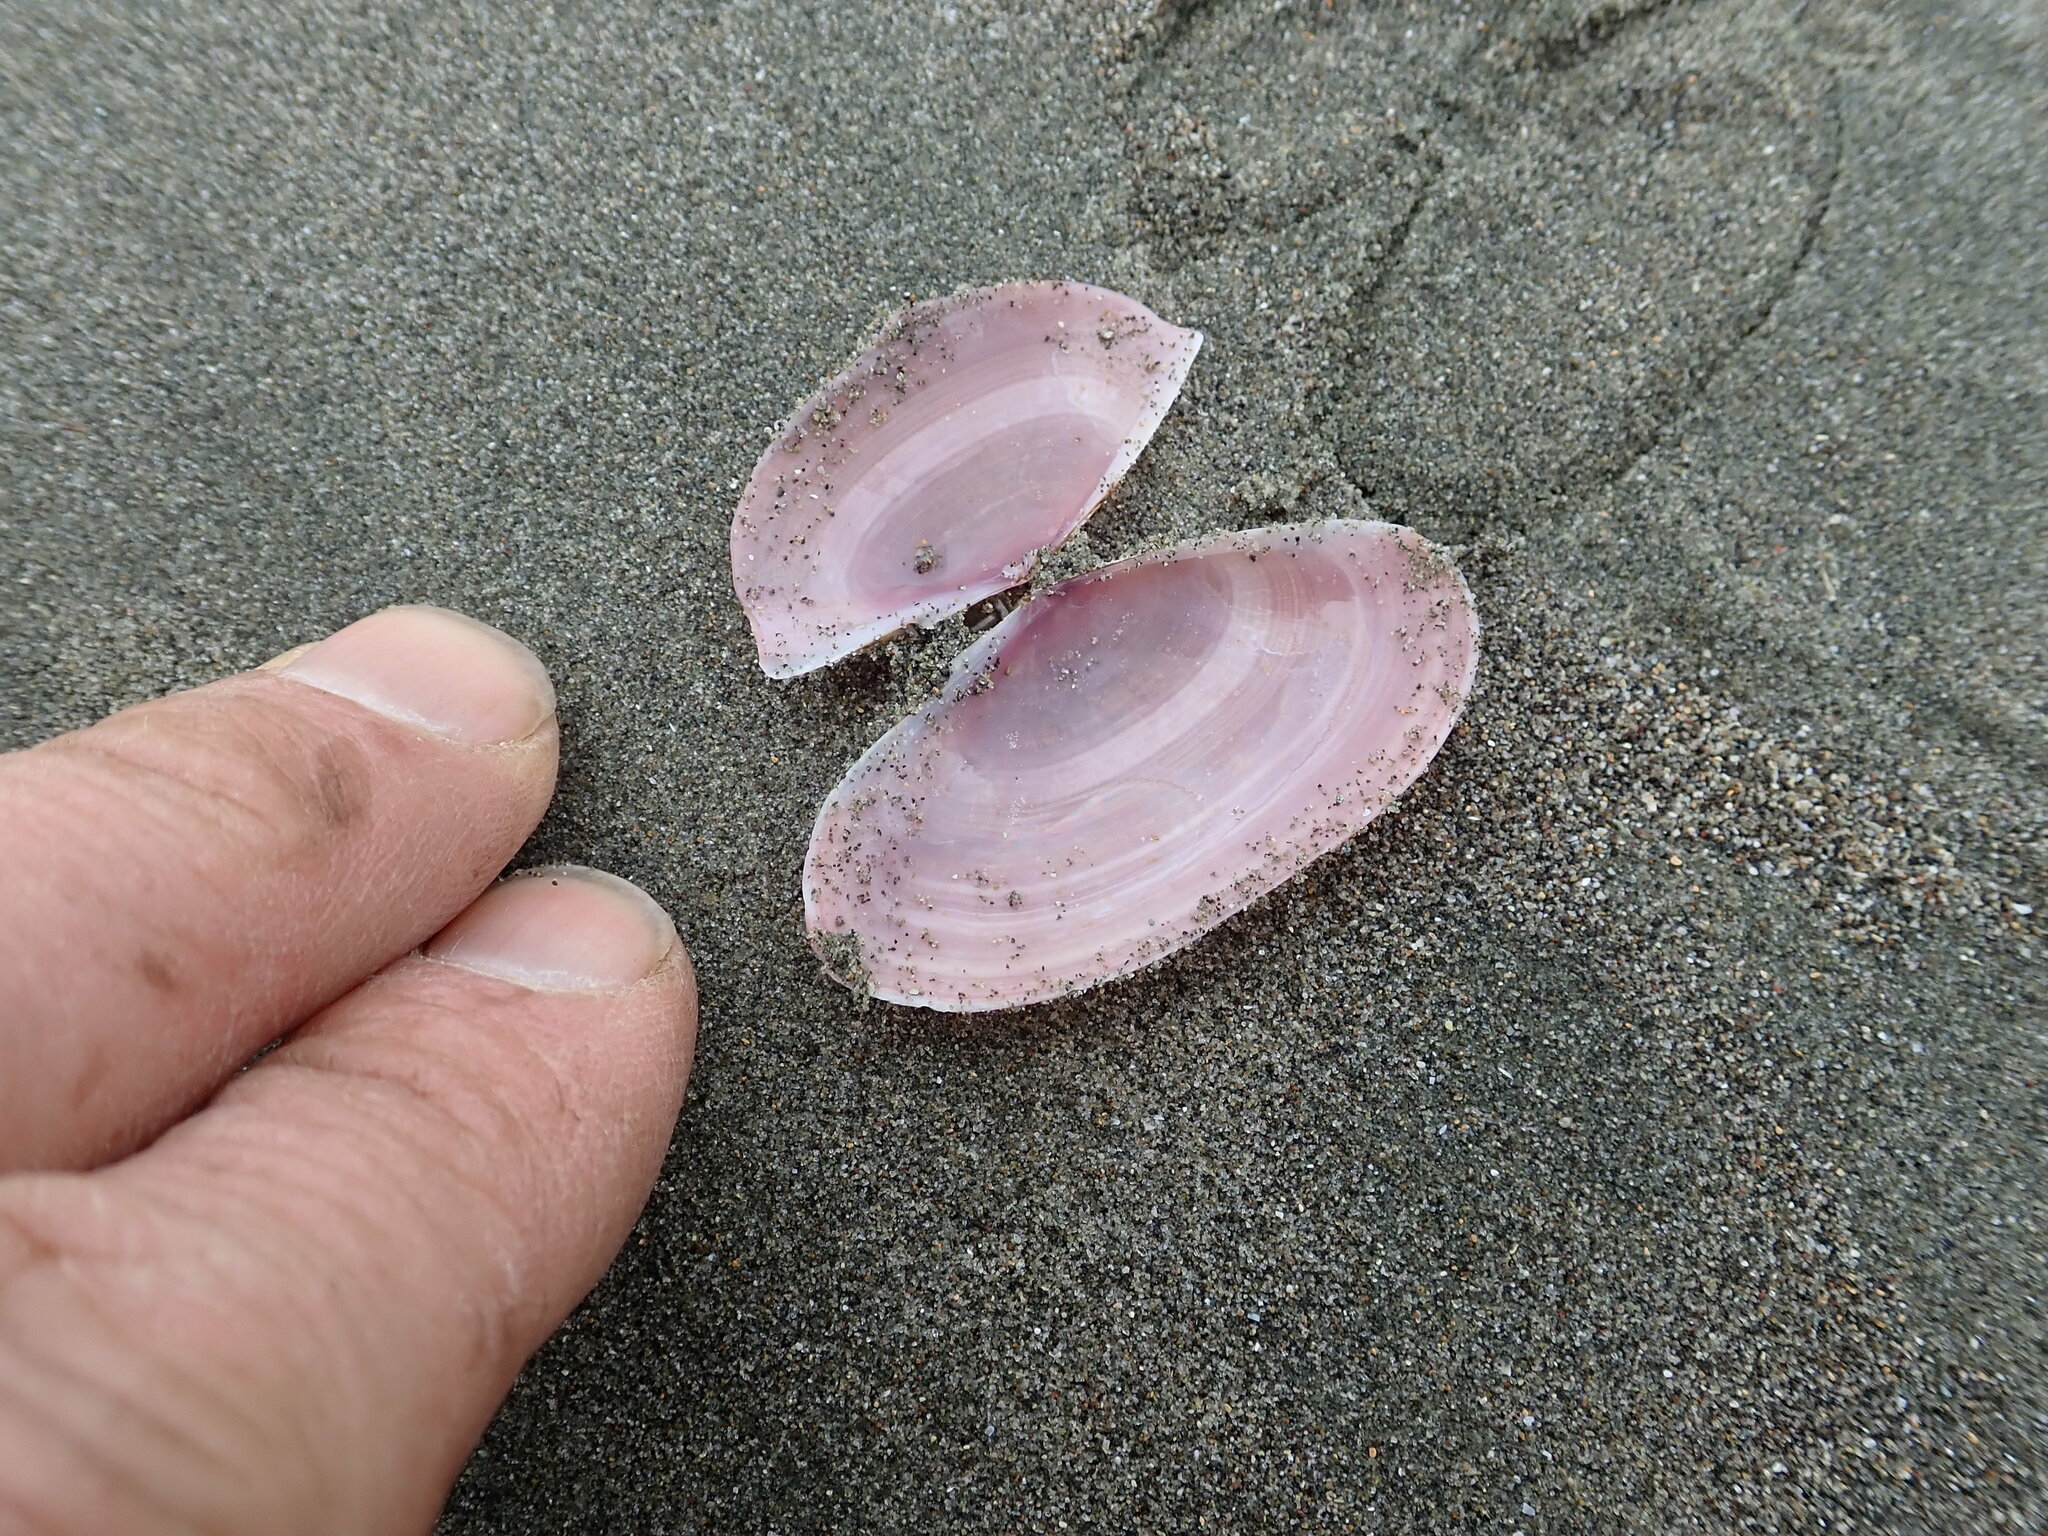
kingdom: Animalia
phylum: Mollusca
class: Bivalvia
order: Cardiida
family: Psammobiidae
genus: Gari
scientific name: Gari lineolata
